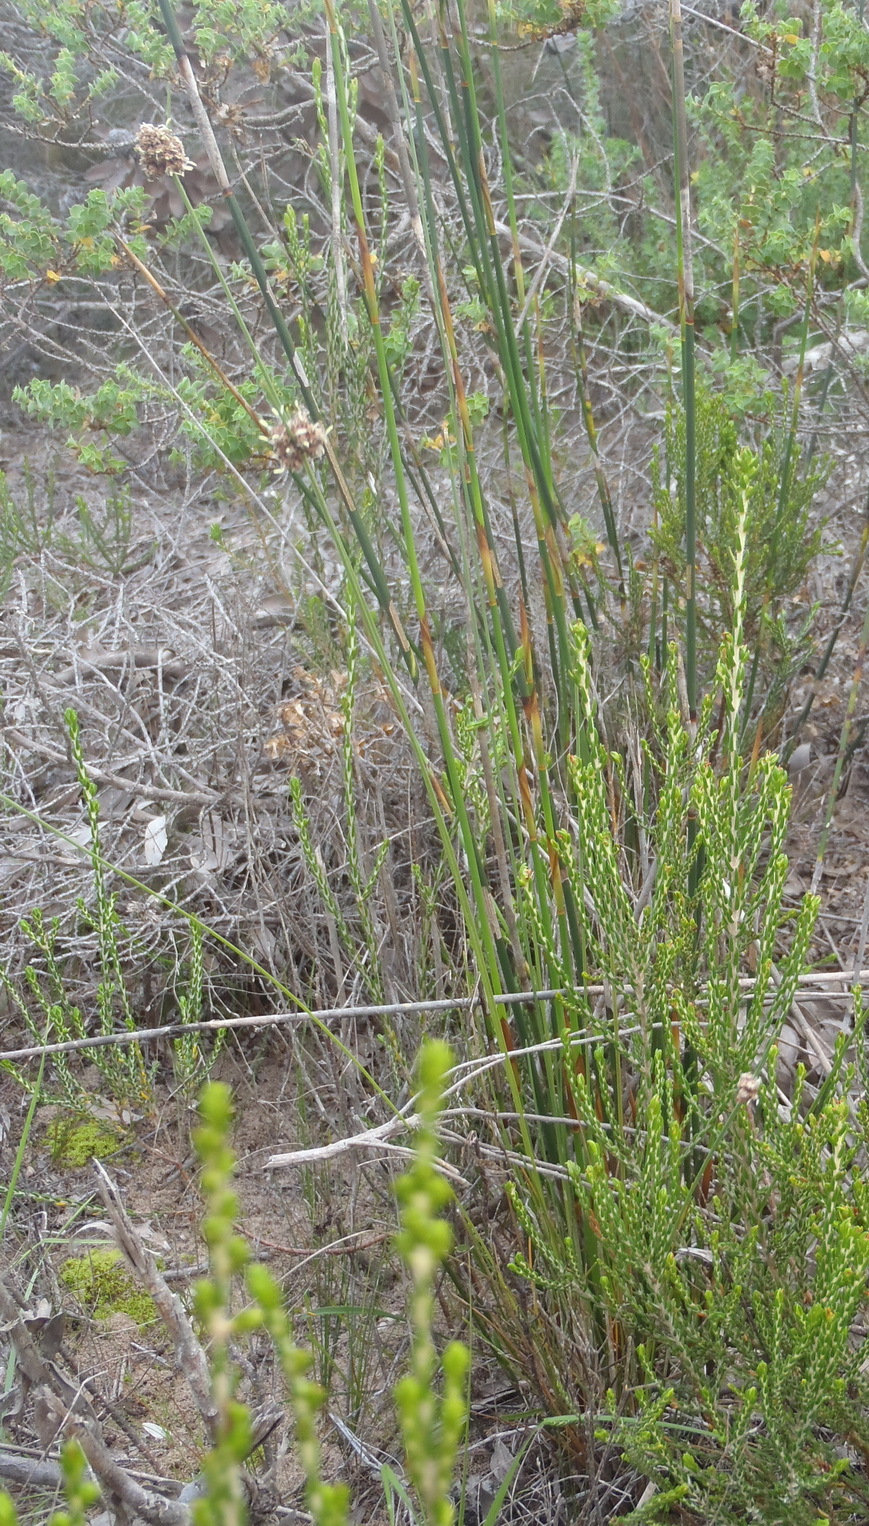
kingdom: Plantae
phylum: Tracheophyta
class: Liliopsida
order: Poales
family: Cyperaceae
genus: Ficinia
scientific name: Ficinia ecklonea
